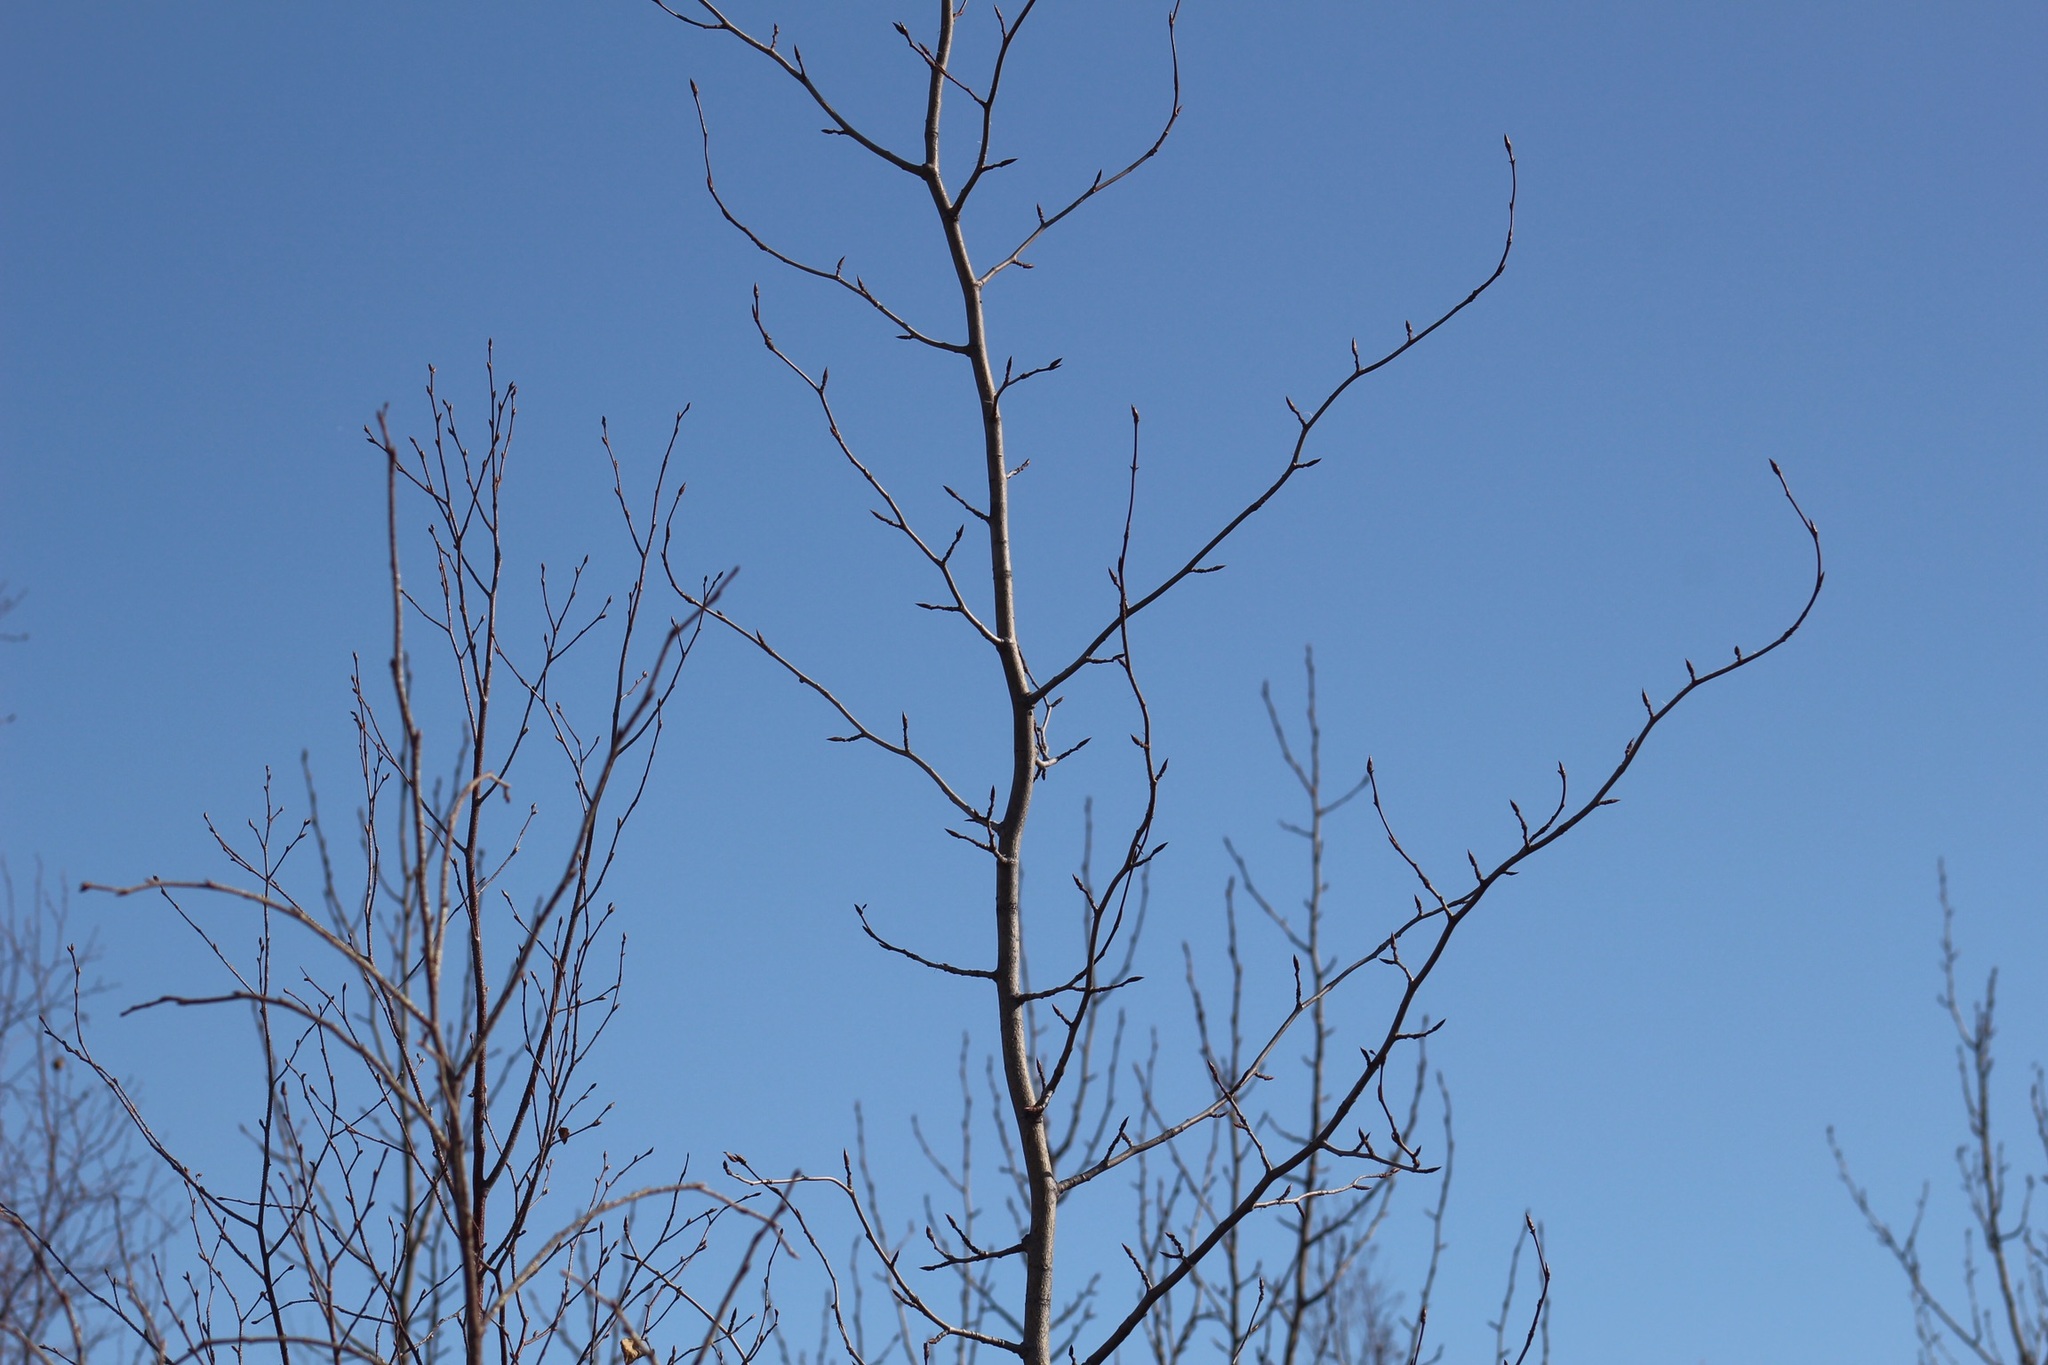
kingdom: Plantae
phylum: Tracheophyta
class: Magnoliopsida
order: Malpighiales
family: Salicaceae
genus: Populus
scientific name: Populus balsamifera
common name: Balsam poplar
